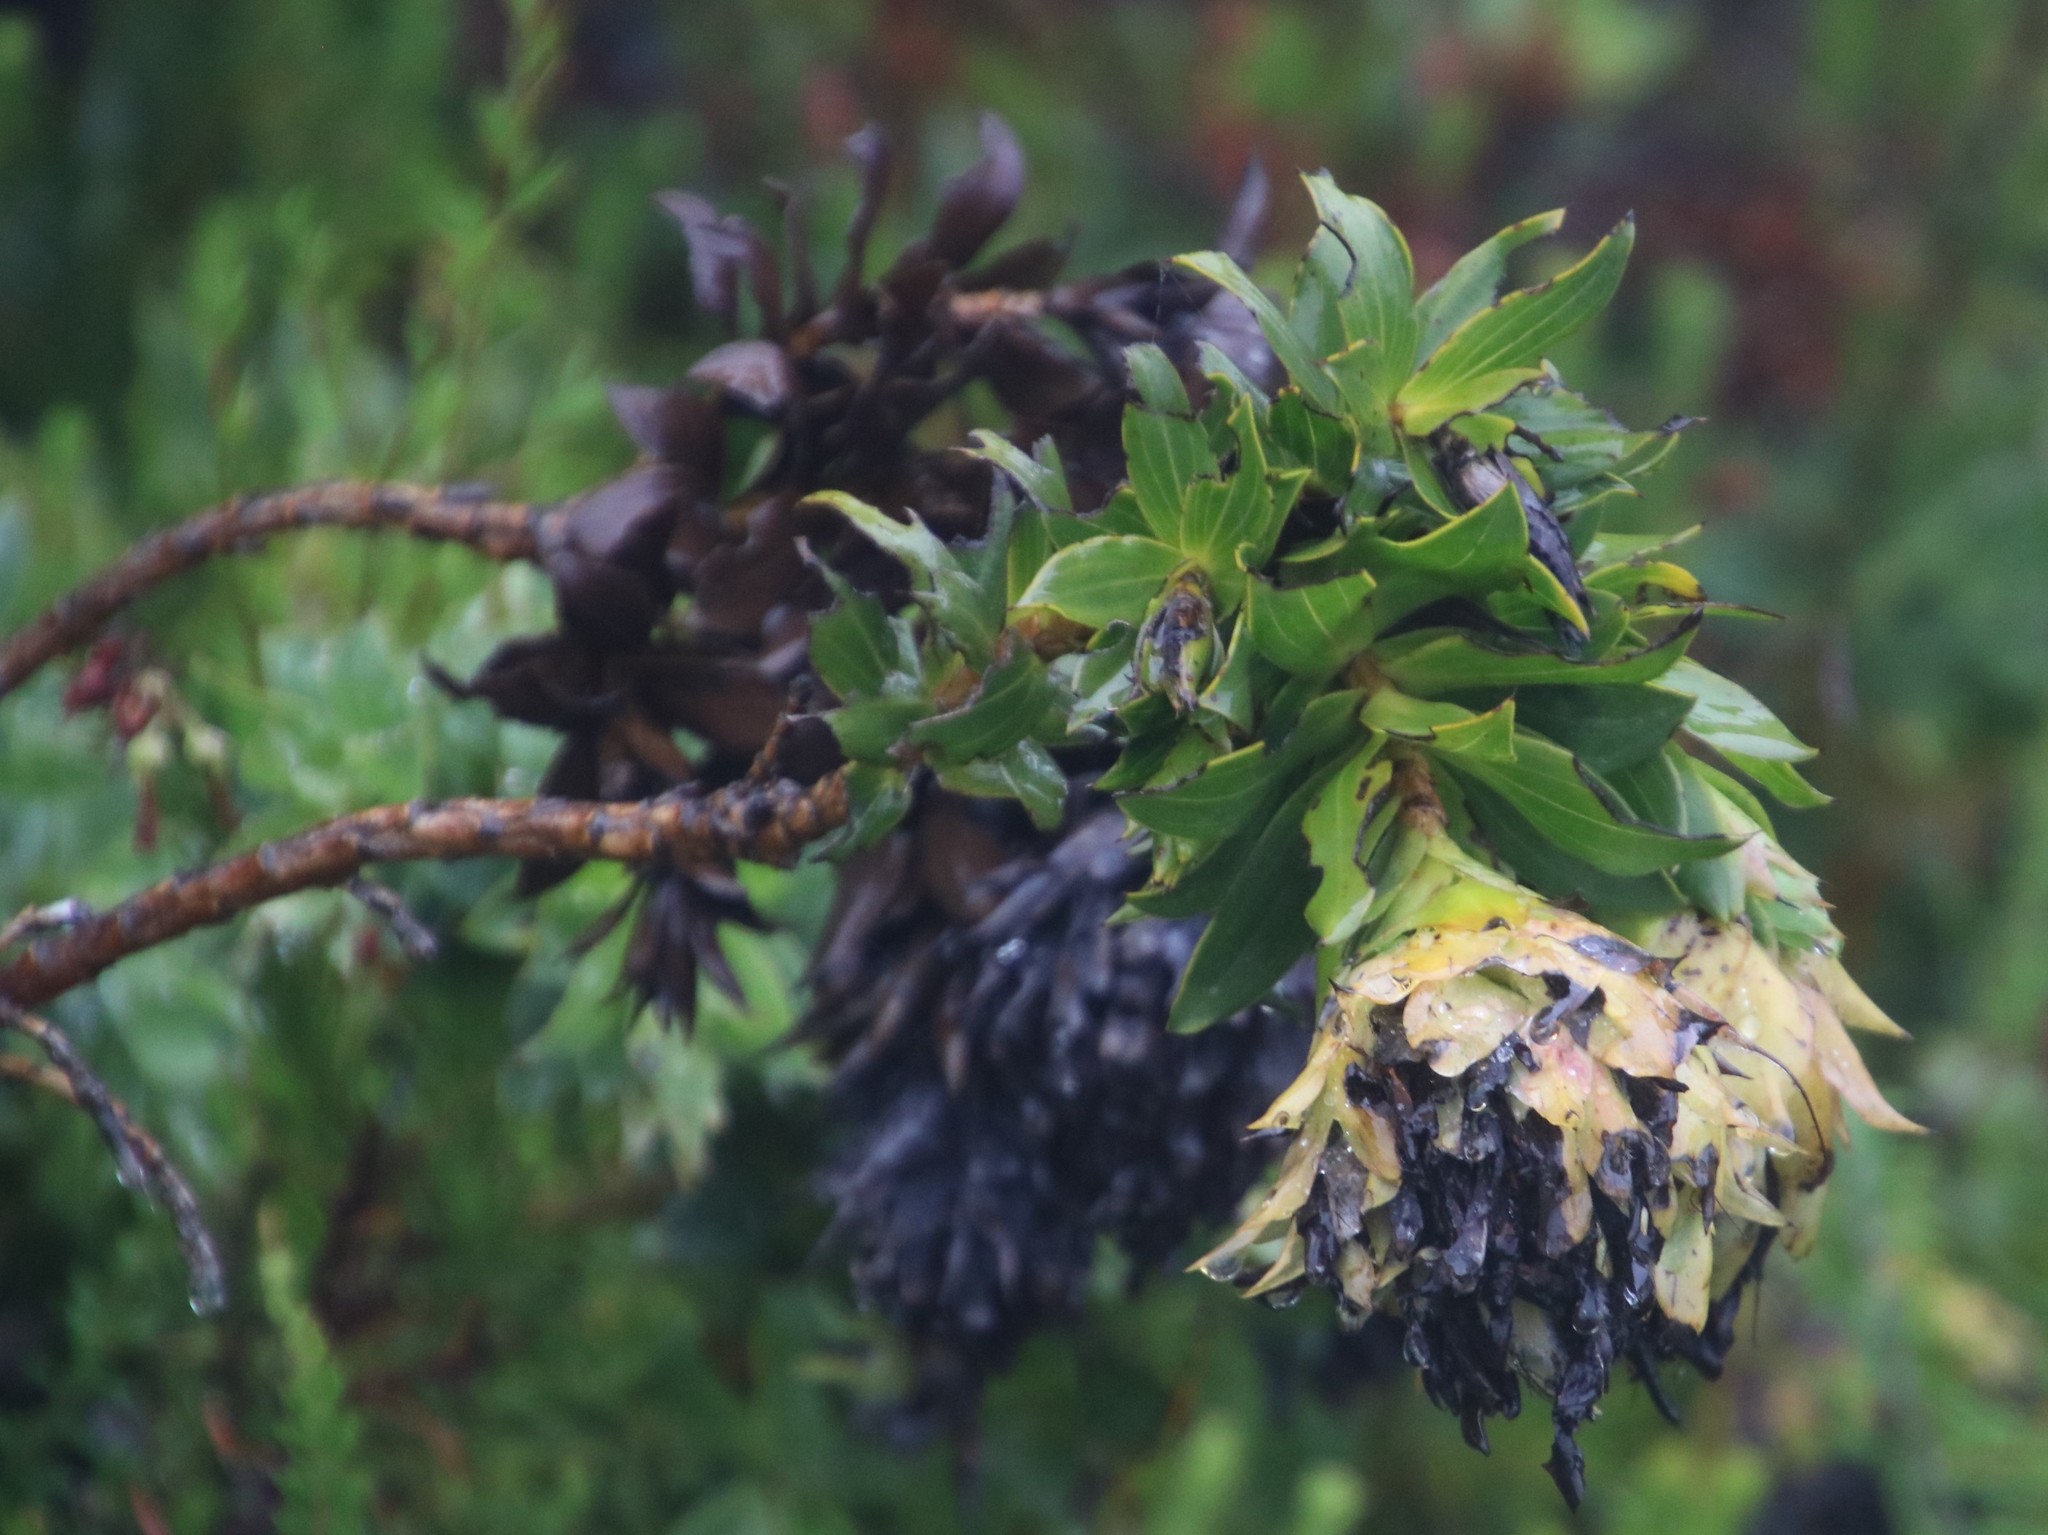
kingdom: Plantae
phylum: Tracheophyta
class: Magnoliopsida
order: Fabales
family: Fabaceae
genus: Liparia
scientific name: Liparia splendens
